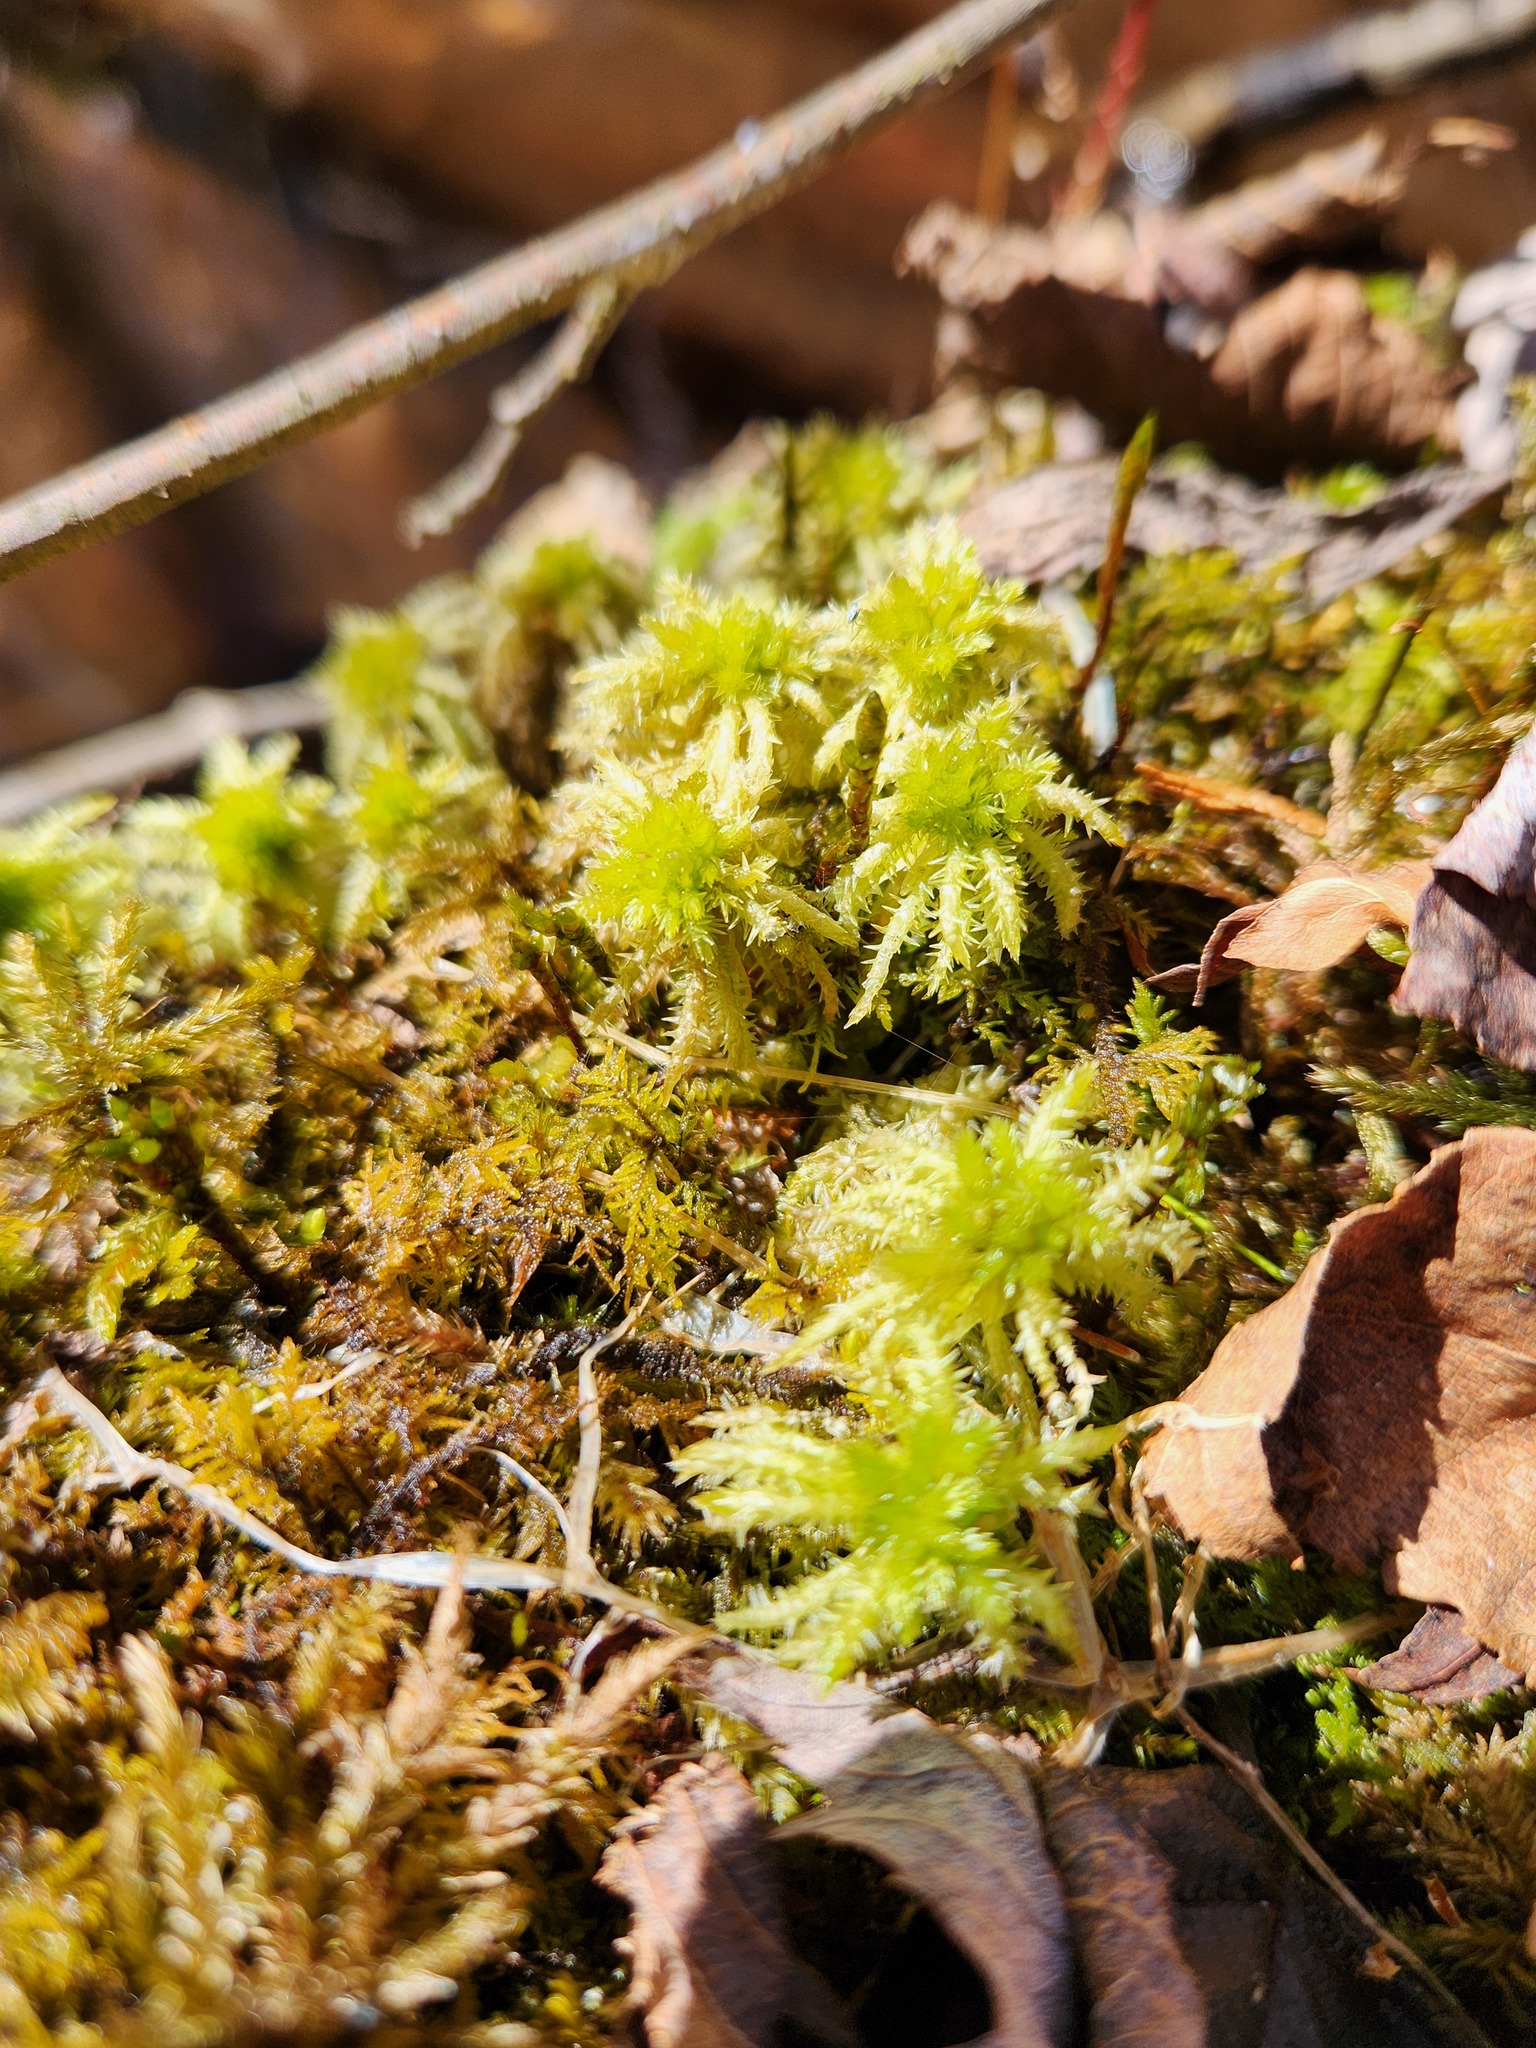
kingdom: Plantae
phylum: Bryophyta
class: Sphagnopsida
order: Sphagnales
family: Sphagnaceae
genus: Sphagnum
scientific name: Sphagnum squarrosum
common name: Shaggy peat moss
